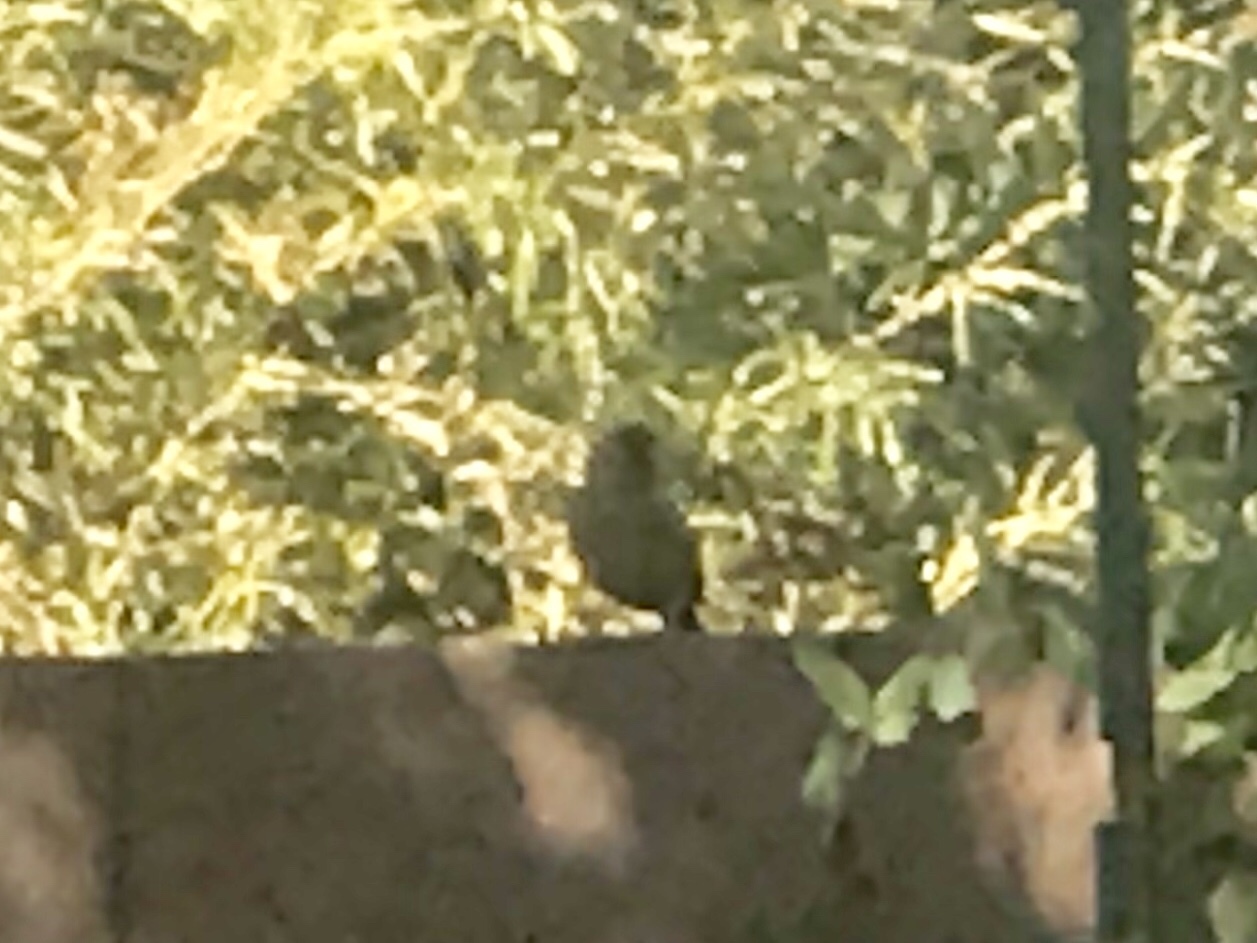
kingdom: Animalia
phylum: Chordata
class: Aves
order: Passeriformes
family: Passerellidae
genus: Melozone
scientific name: Melozone aberti
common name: Abert's towhee
